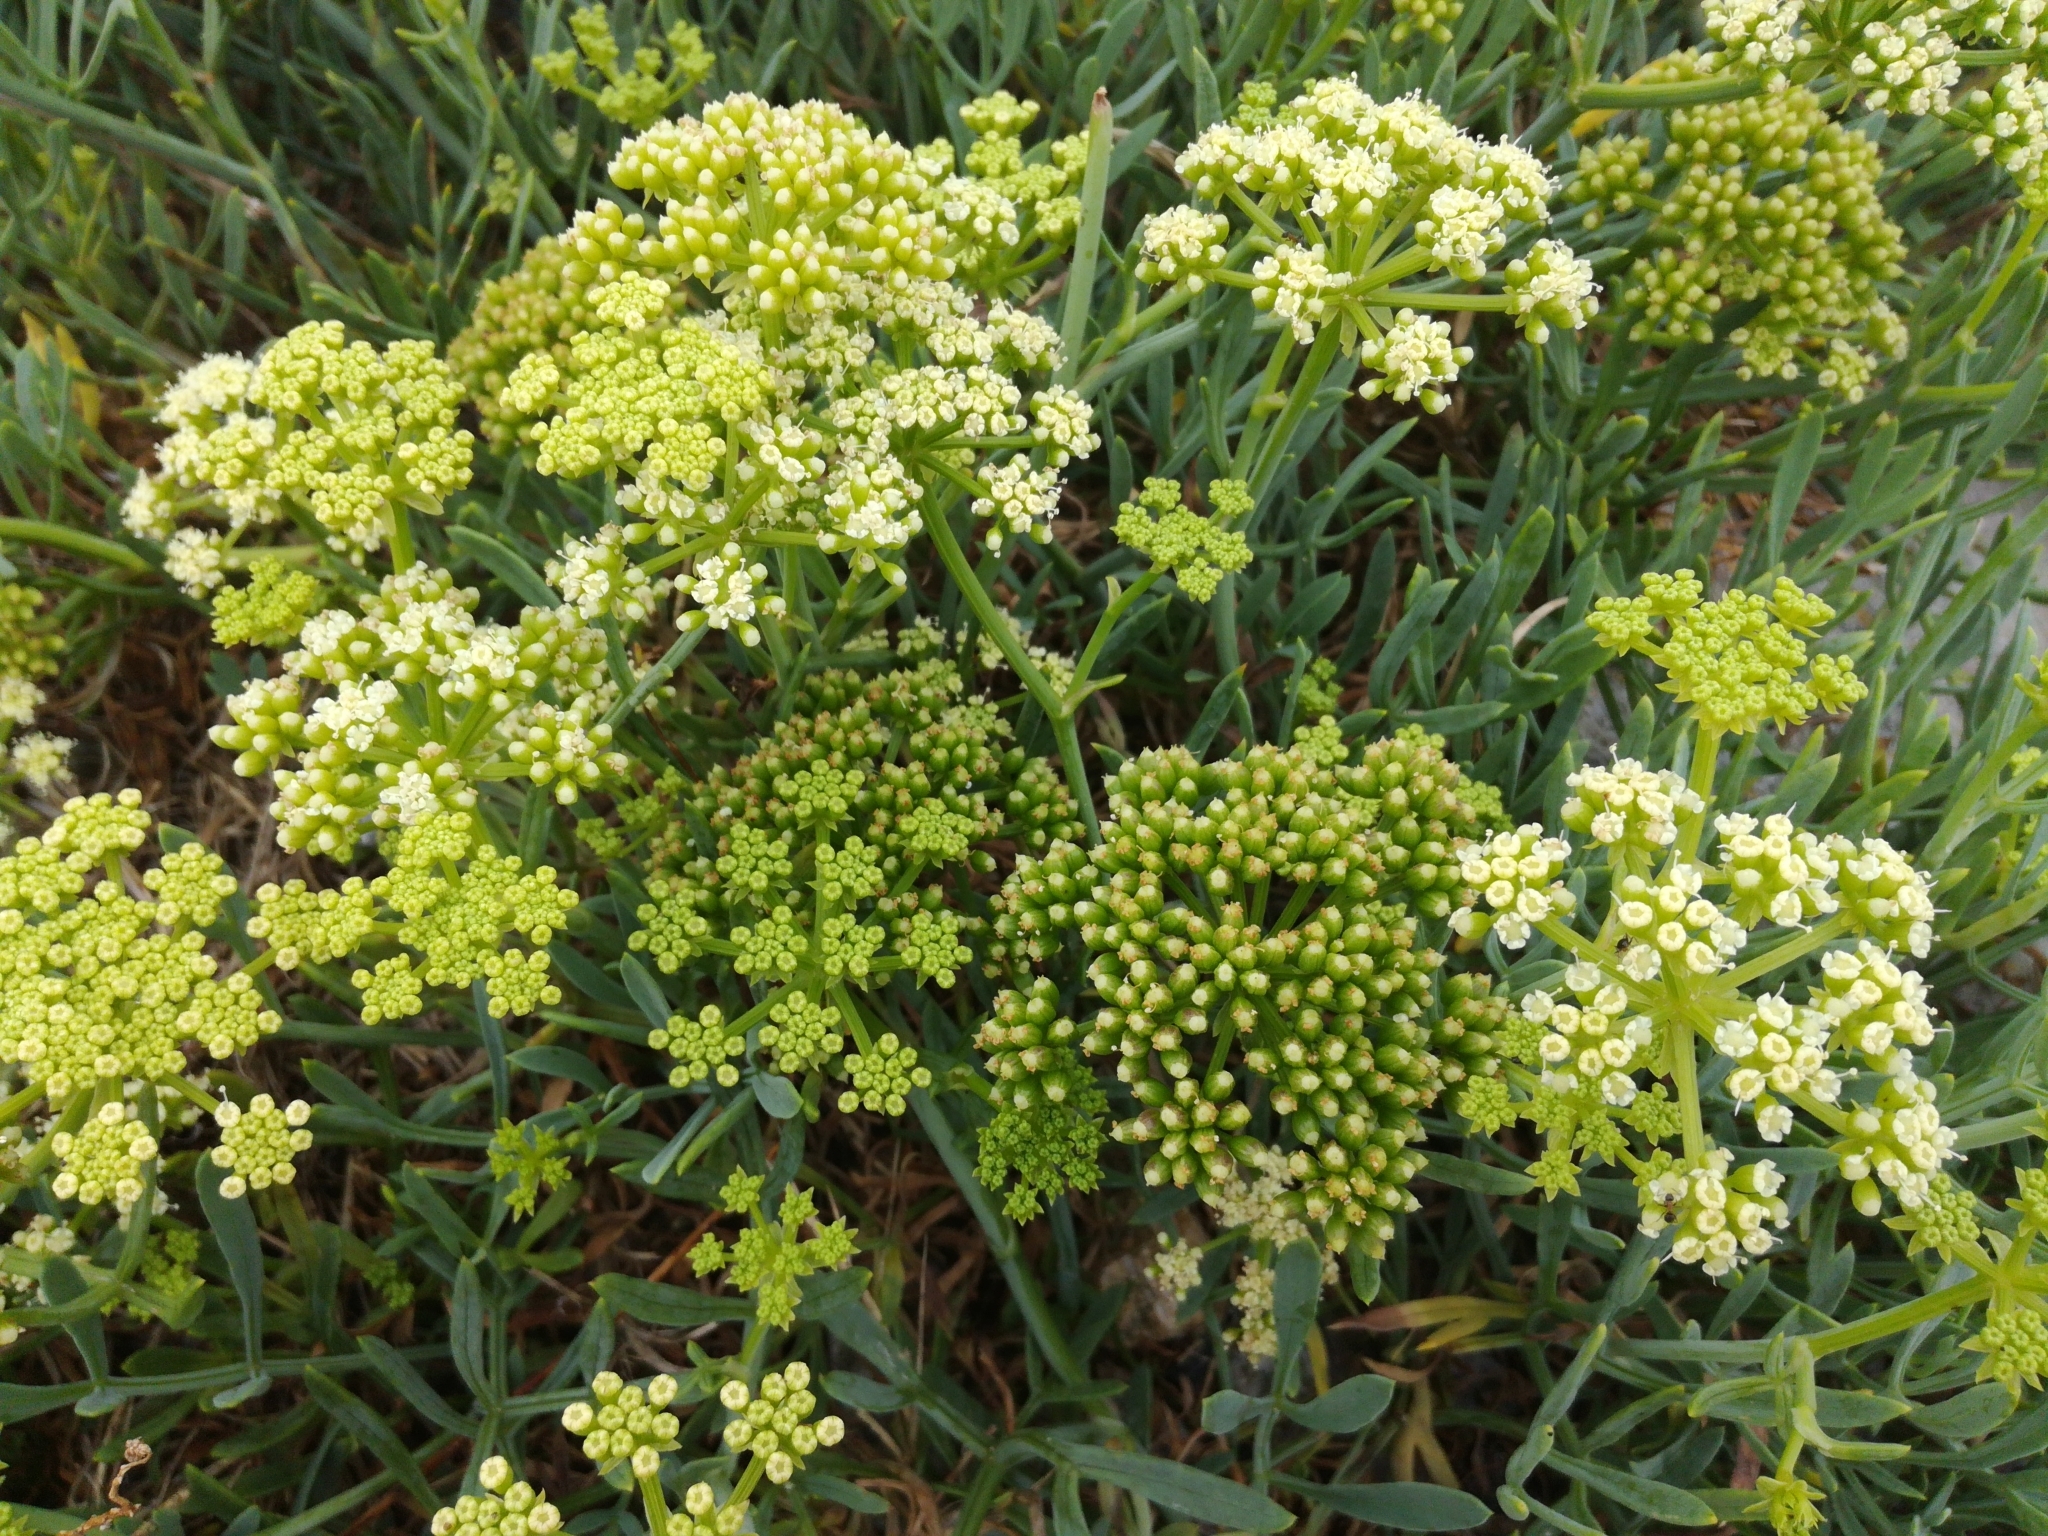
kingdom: Plantae
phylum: Tracheophyta
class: Magnoliopsida
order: Apiales
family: Apiaceae
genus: Crithmum
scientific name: Crithmum maritimum
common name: Rock samphire
